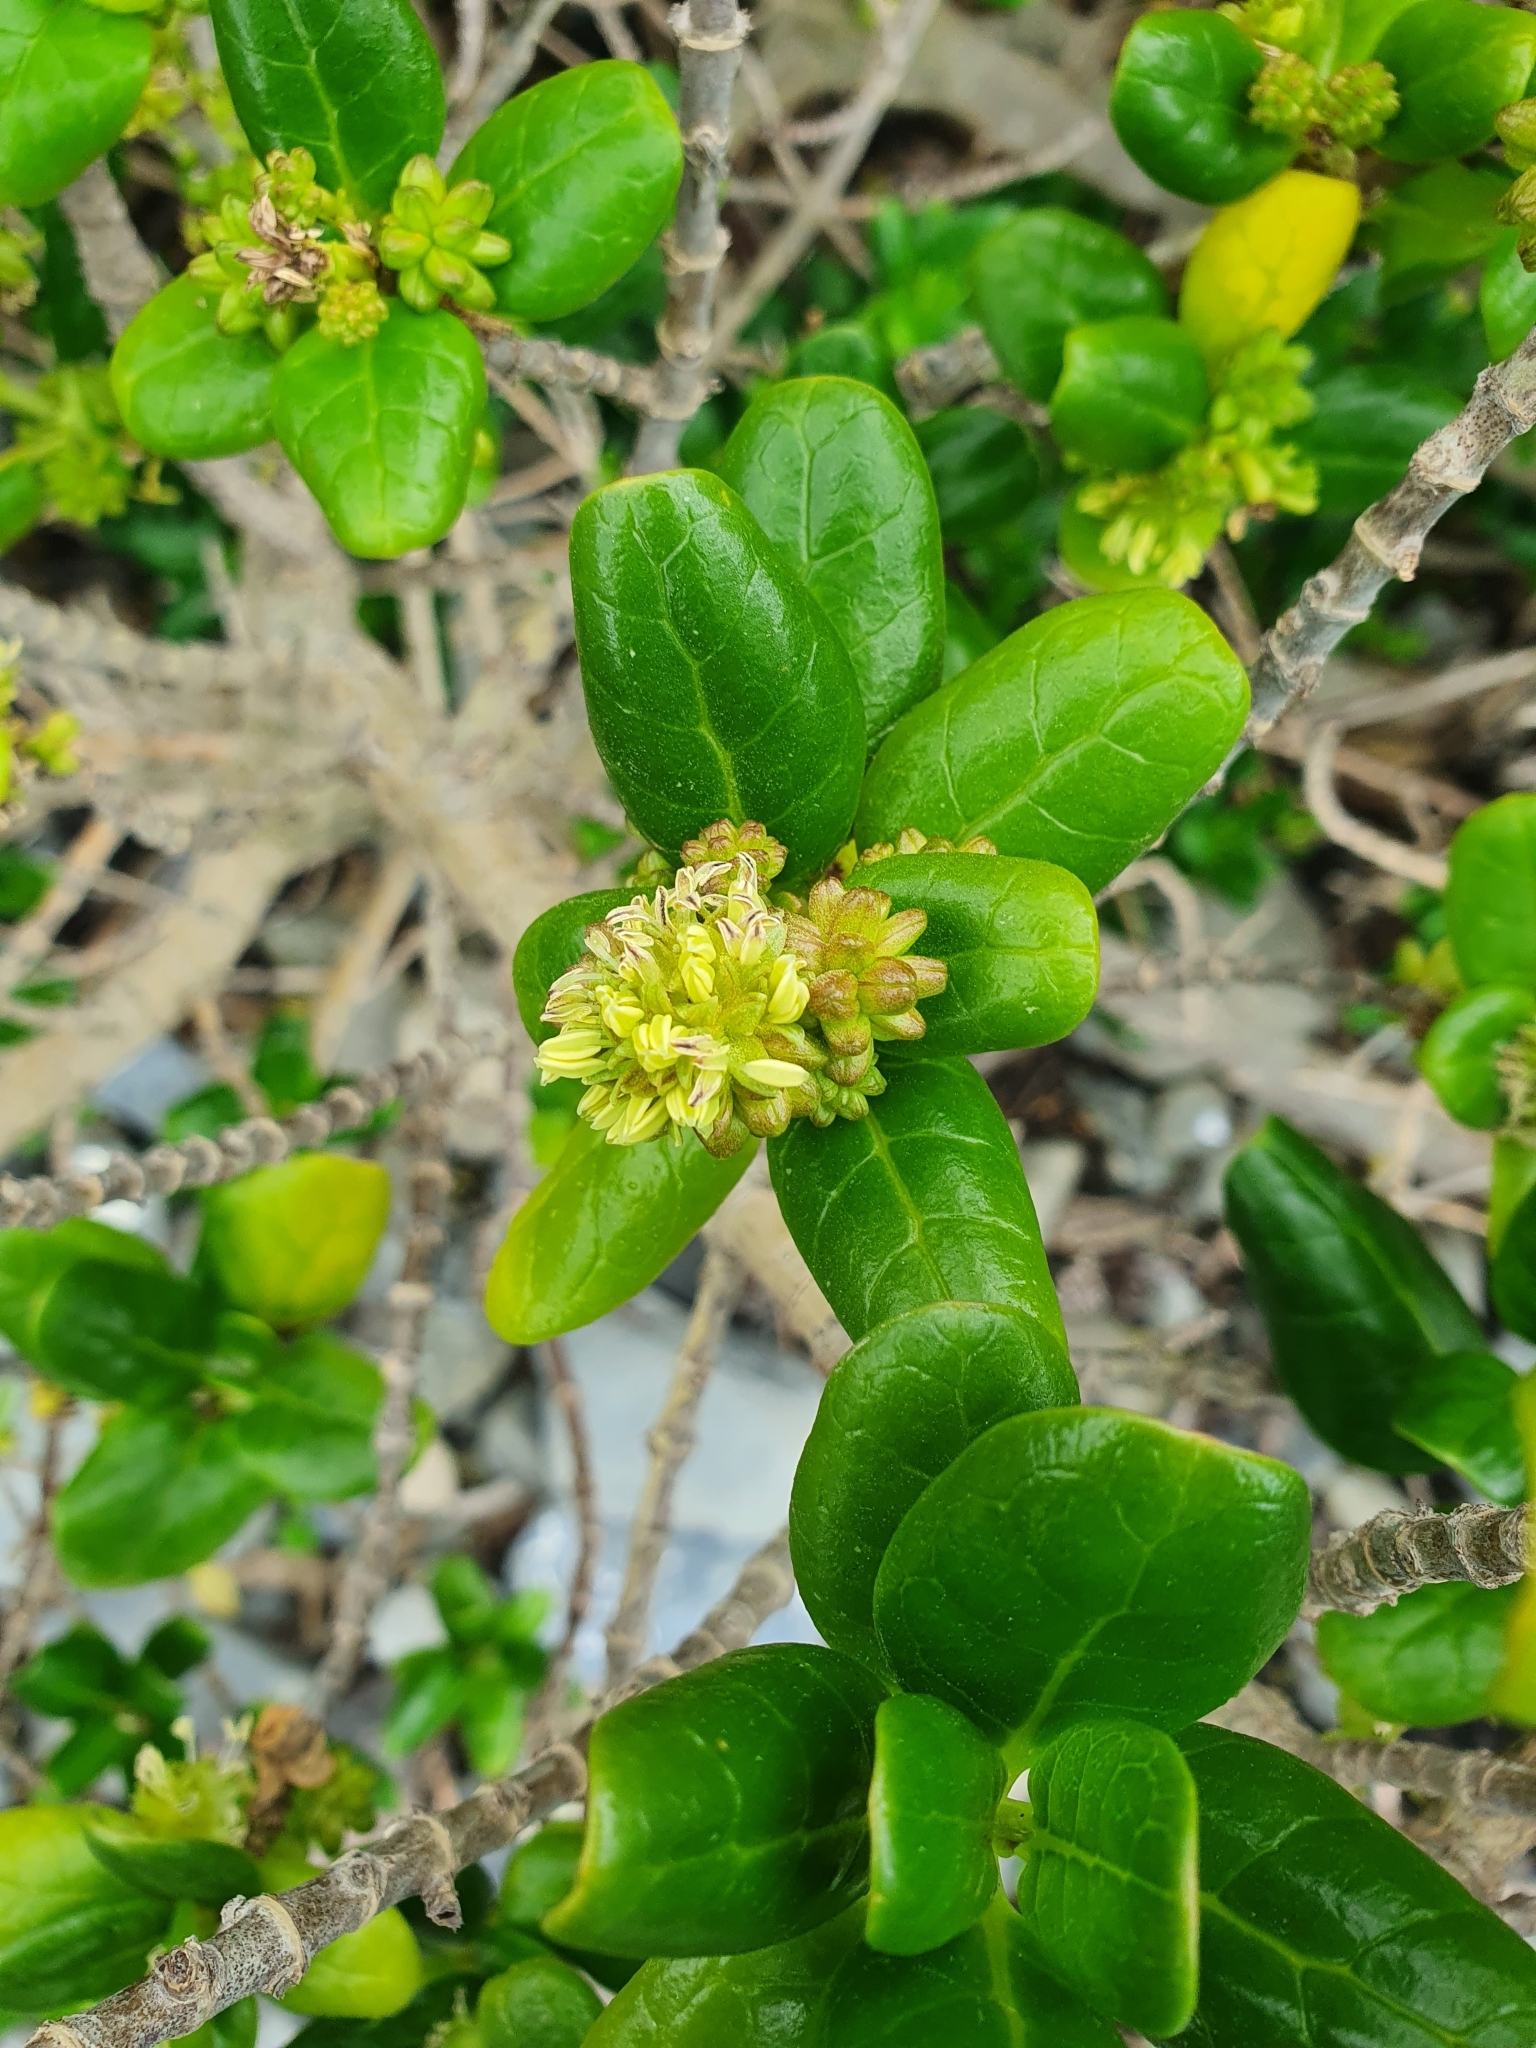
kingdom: Plantae
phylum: Tracheophyta
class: Magnoliopsida
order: Gentianales
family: Rubiaceae
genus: Coprosma
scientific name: Coprosma repens
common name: Tree bedstraw
